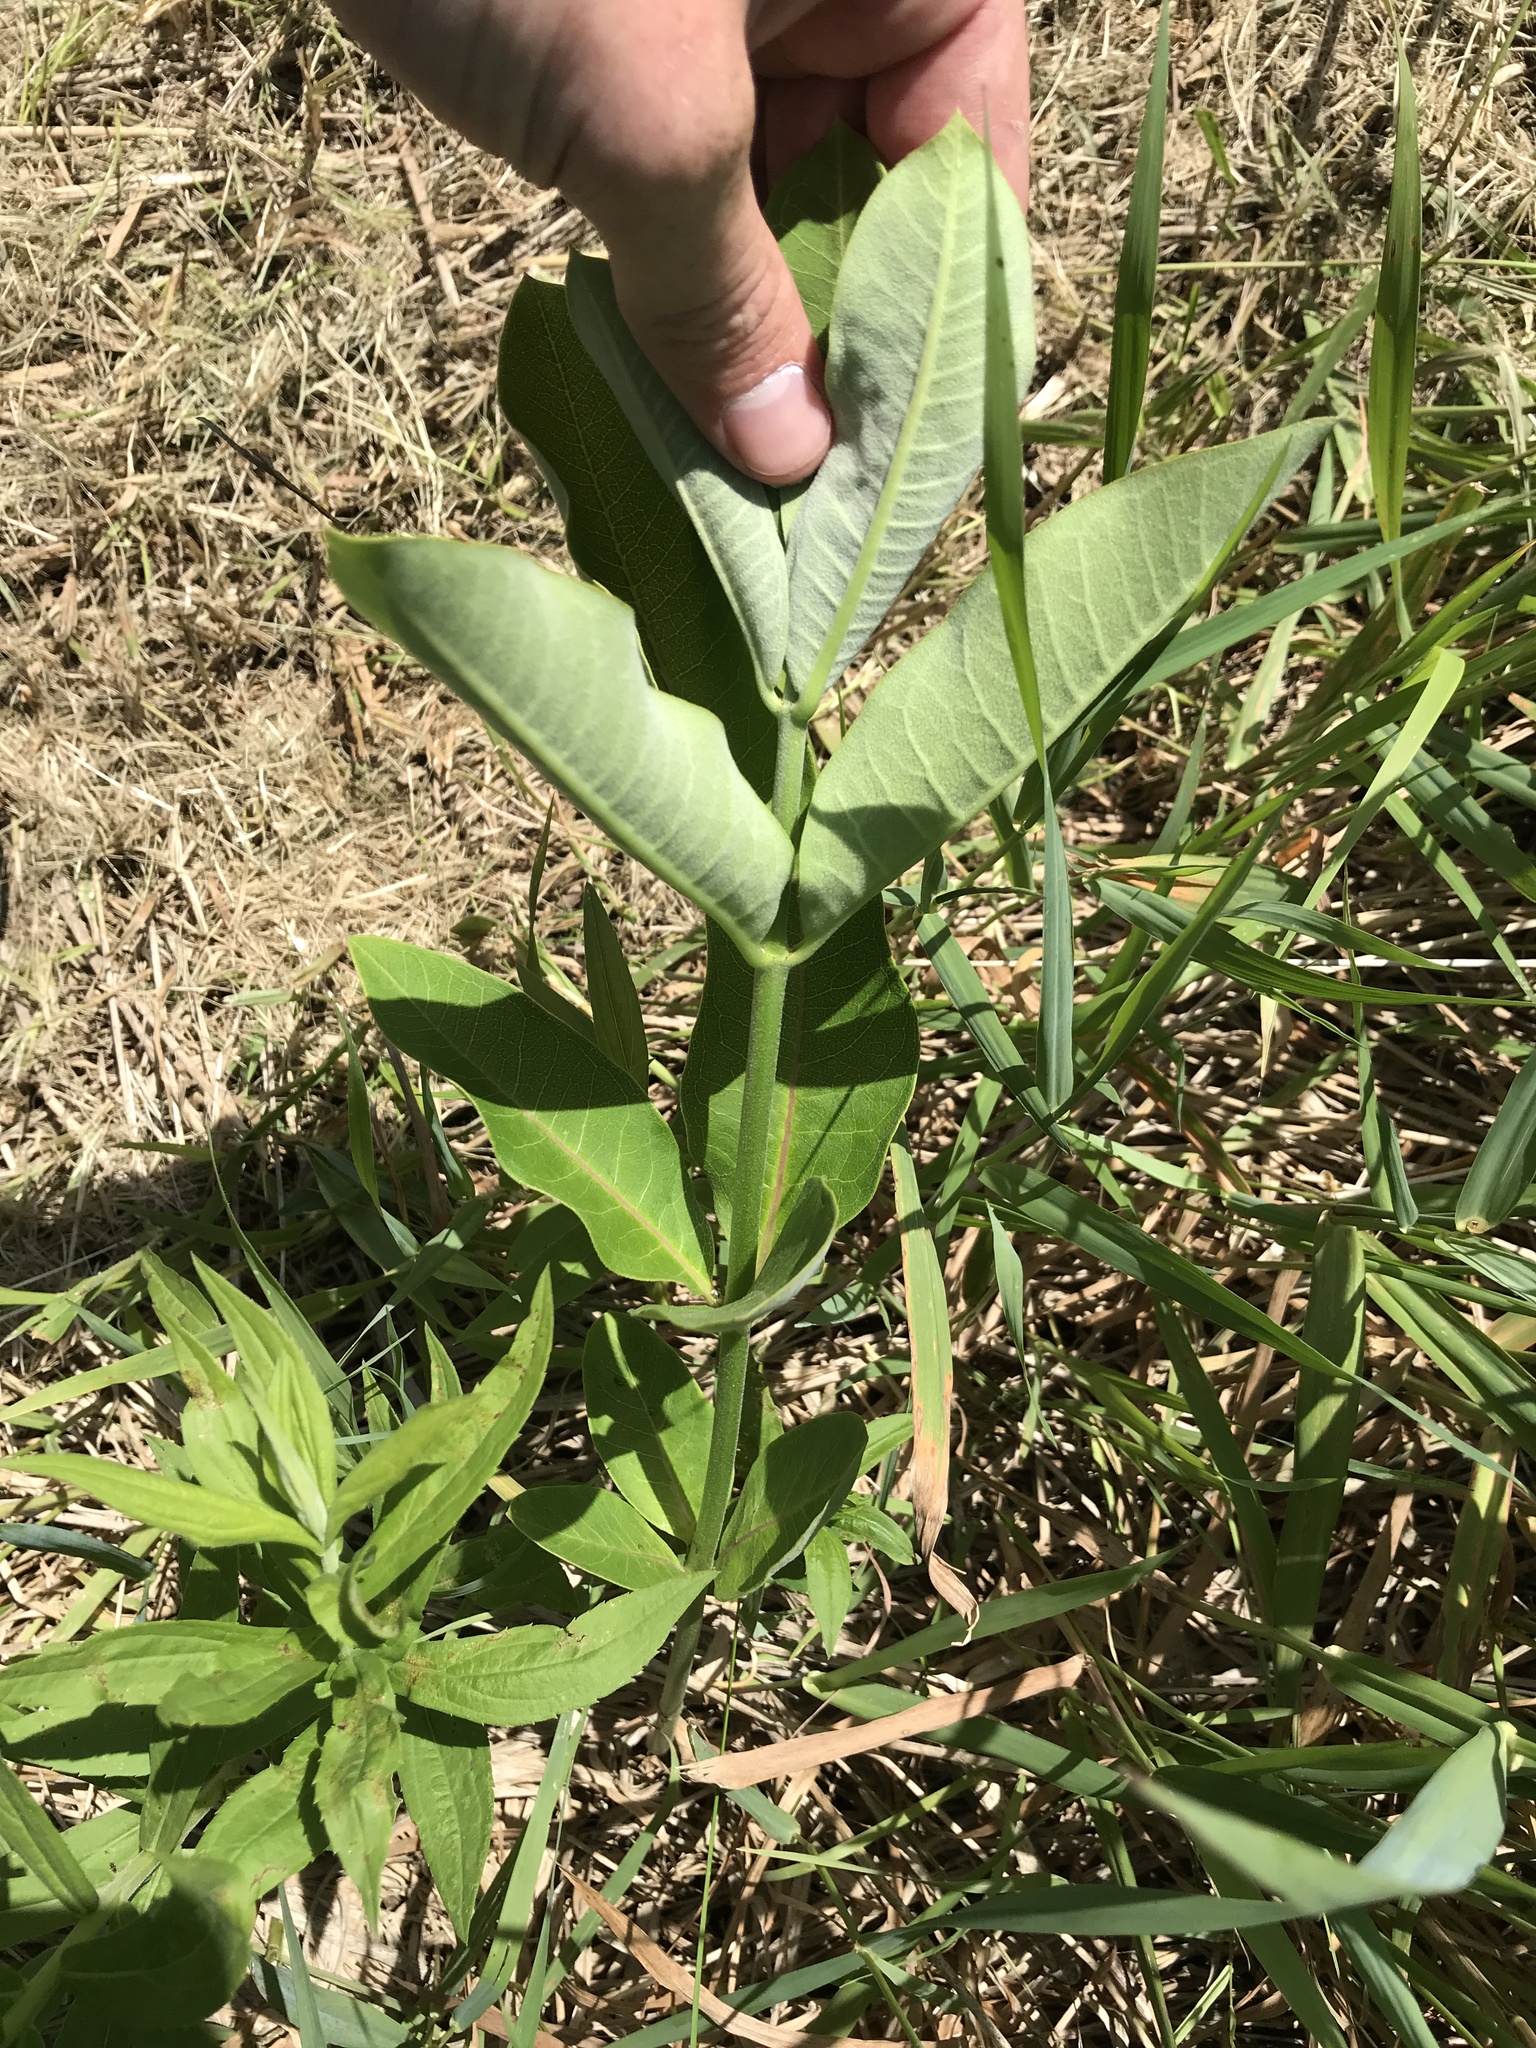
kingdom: Plantae
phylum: Tracheophyta
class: Magnoliopsida
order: Gentianales
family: Apocynaceae
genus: Asclepias
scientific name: Asclepias syriaca
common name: Common milkweed
